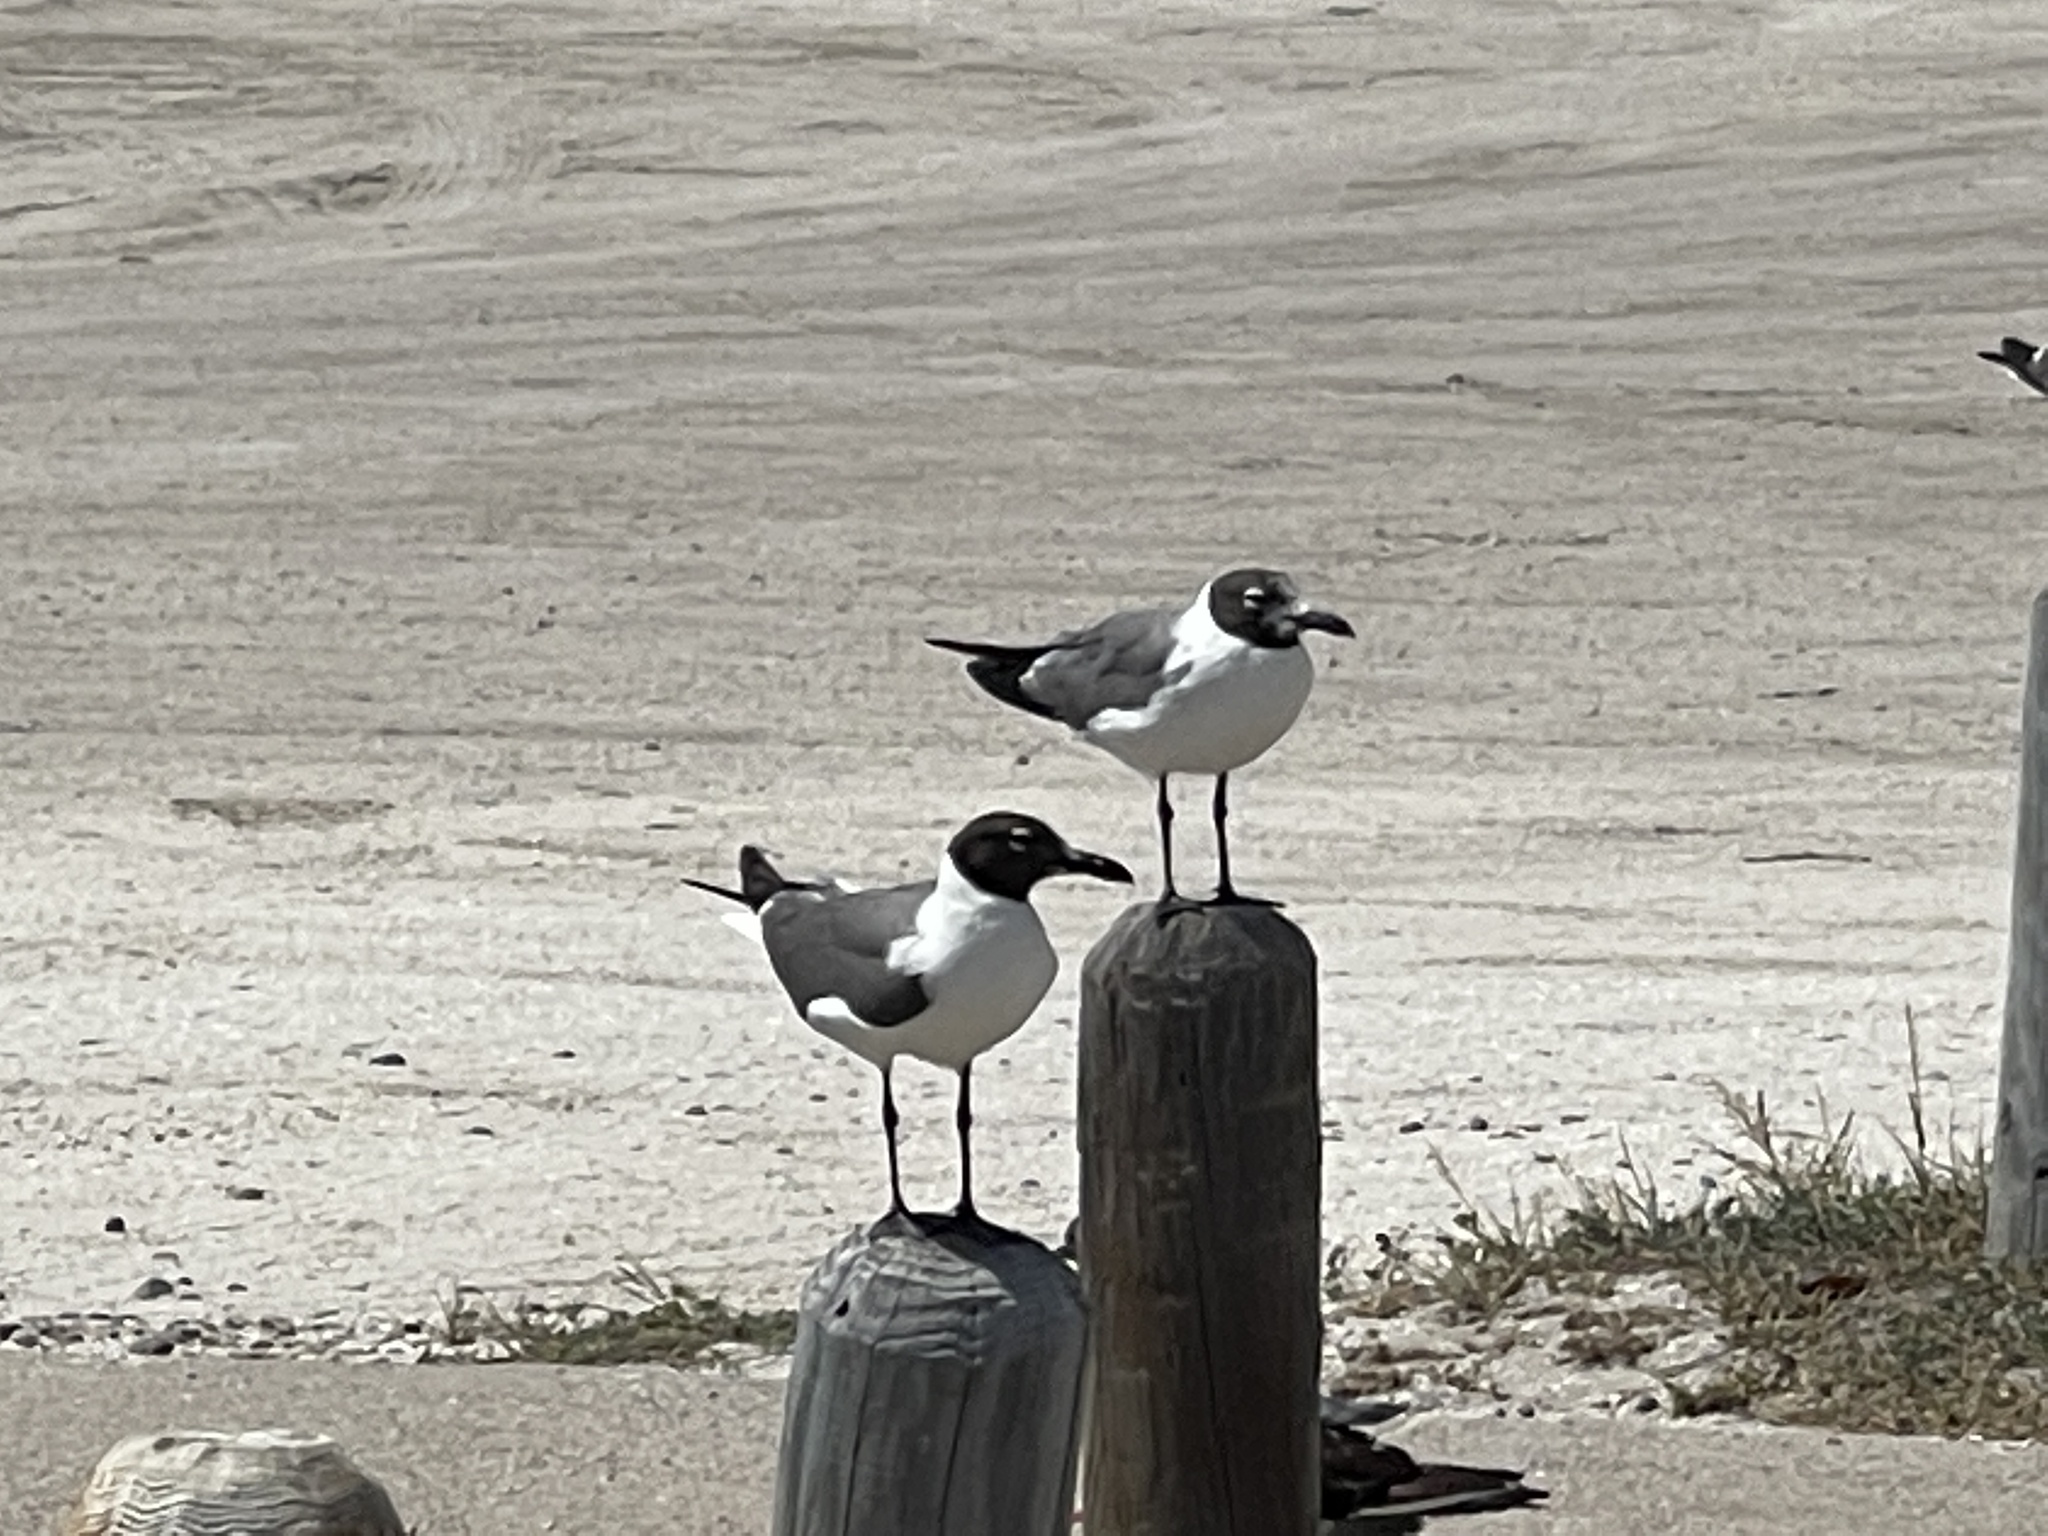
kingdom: Animalia
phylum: Chordata
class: Aves
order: Charadriiformes
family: Laridae
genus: Leucophaeus
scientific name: Leucophaeus atricilla
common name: Laughing gull
